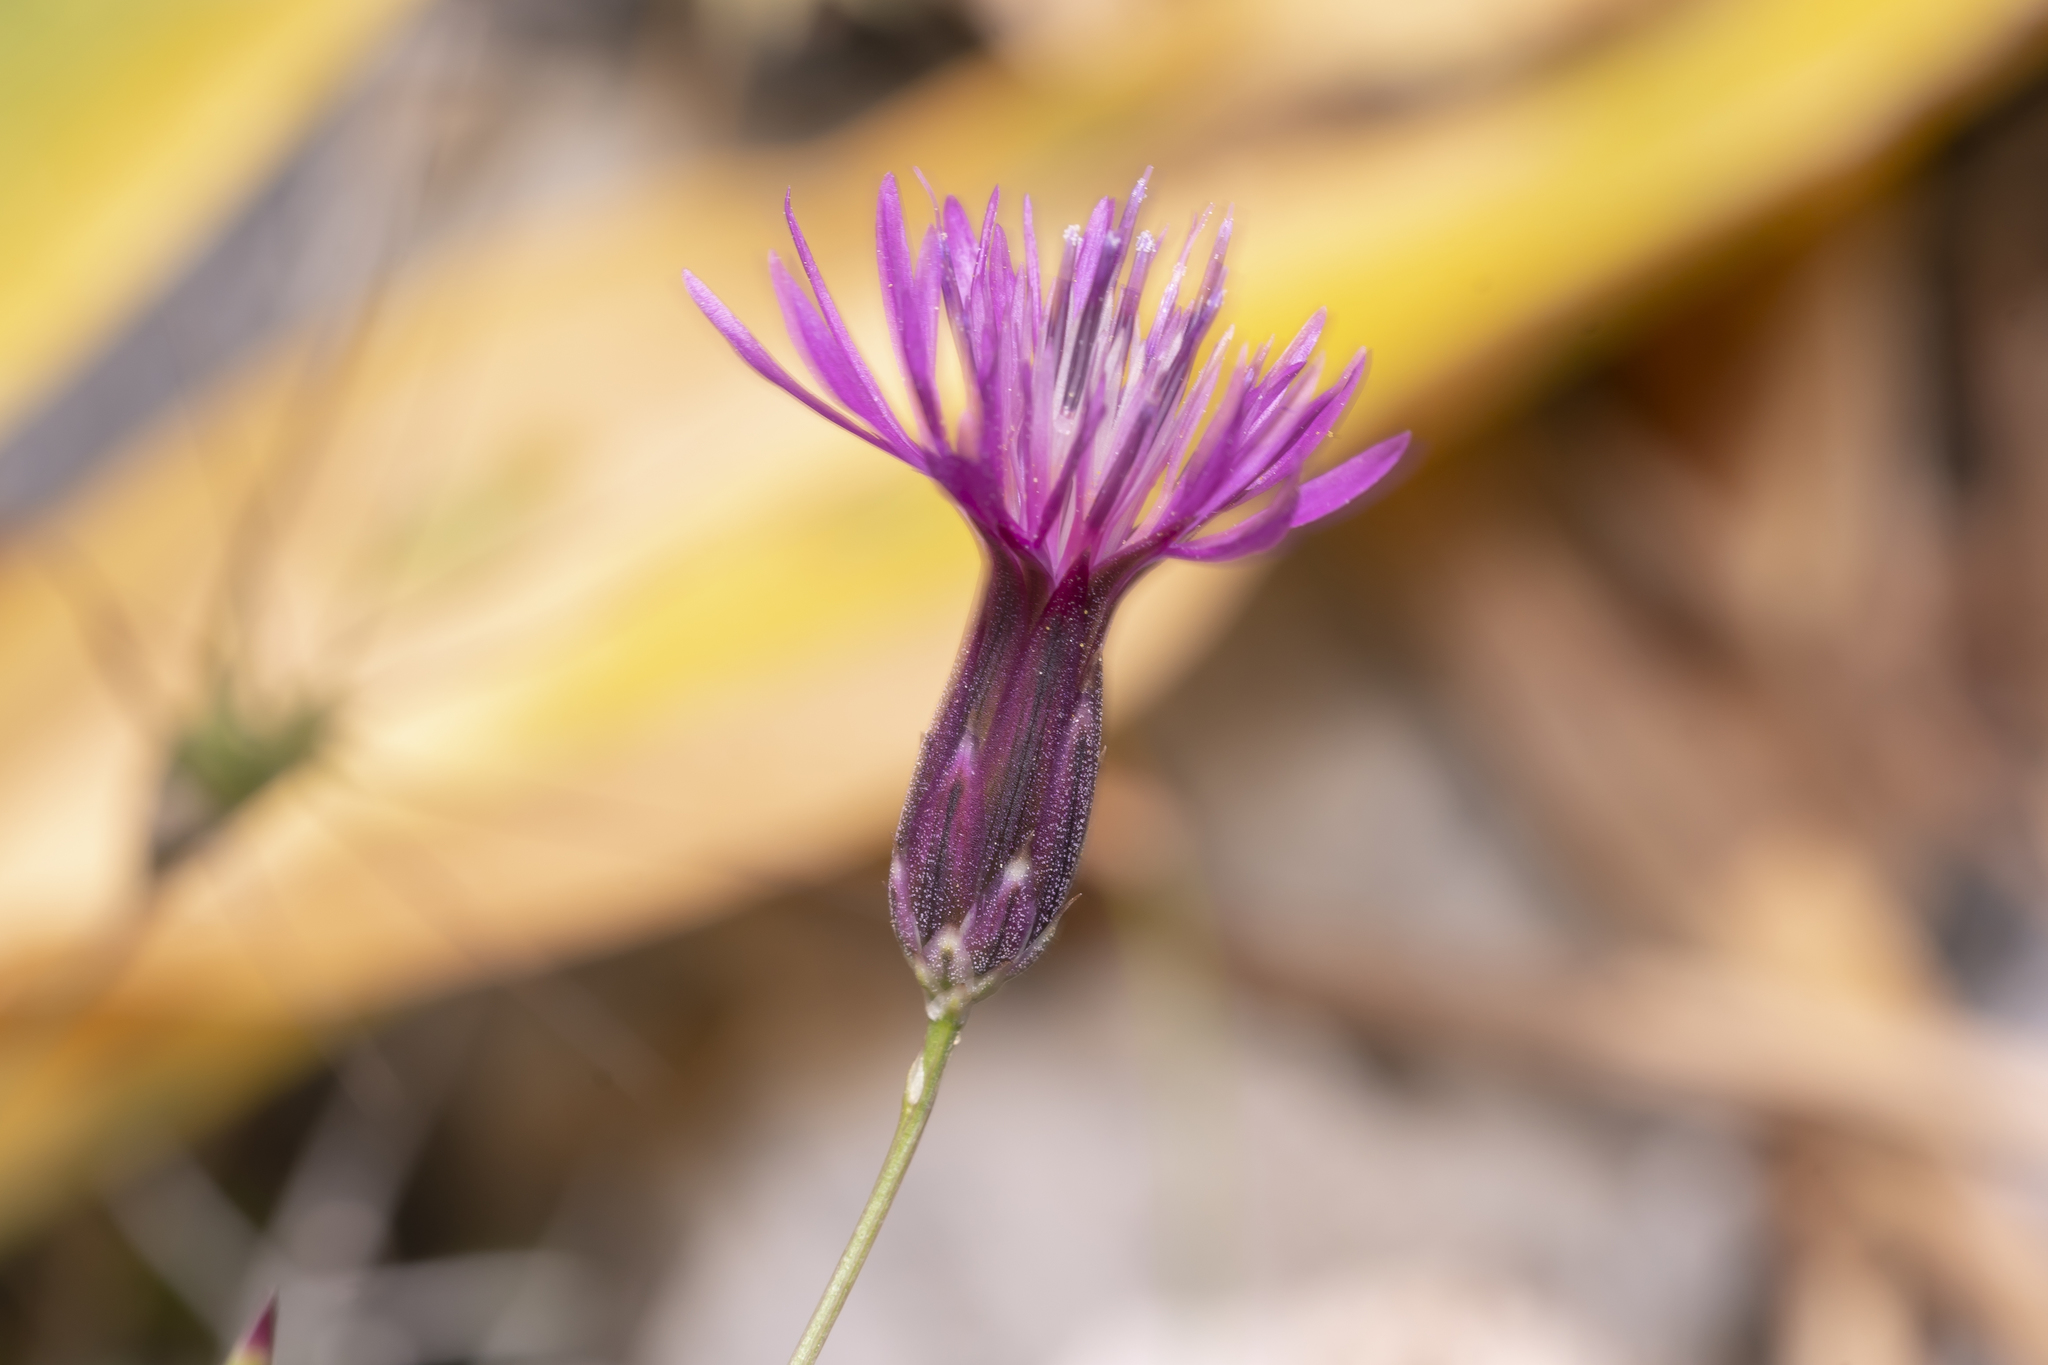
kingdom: Plantae
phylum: Tracheophyta
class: Magnoliopsida
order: Asterales
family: Asteraceae
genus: Crupina
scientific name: Crupina crupinastrum
